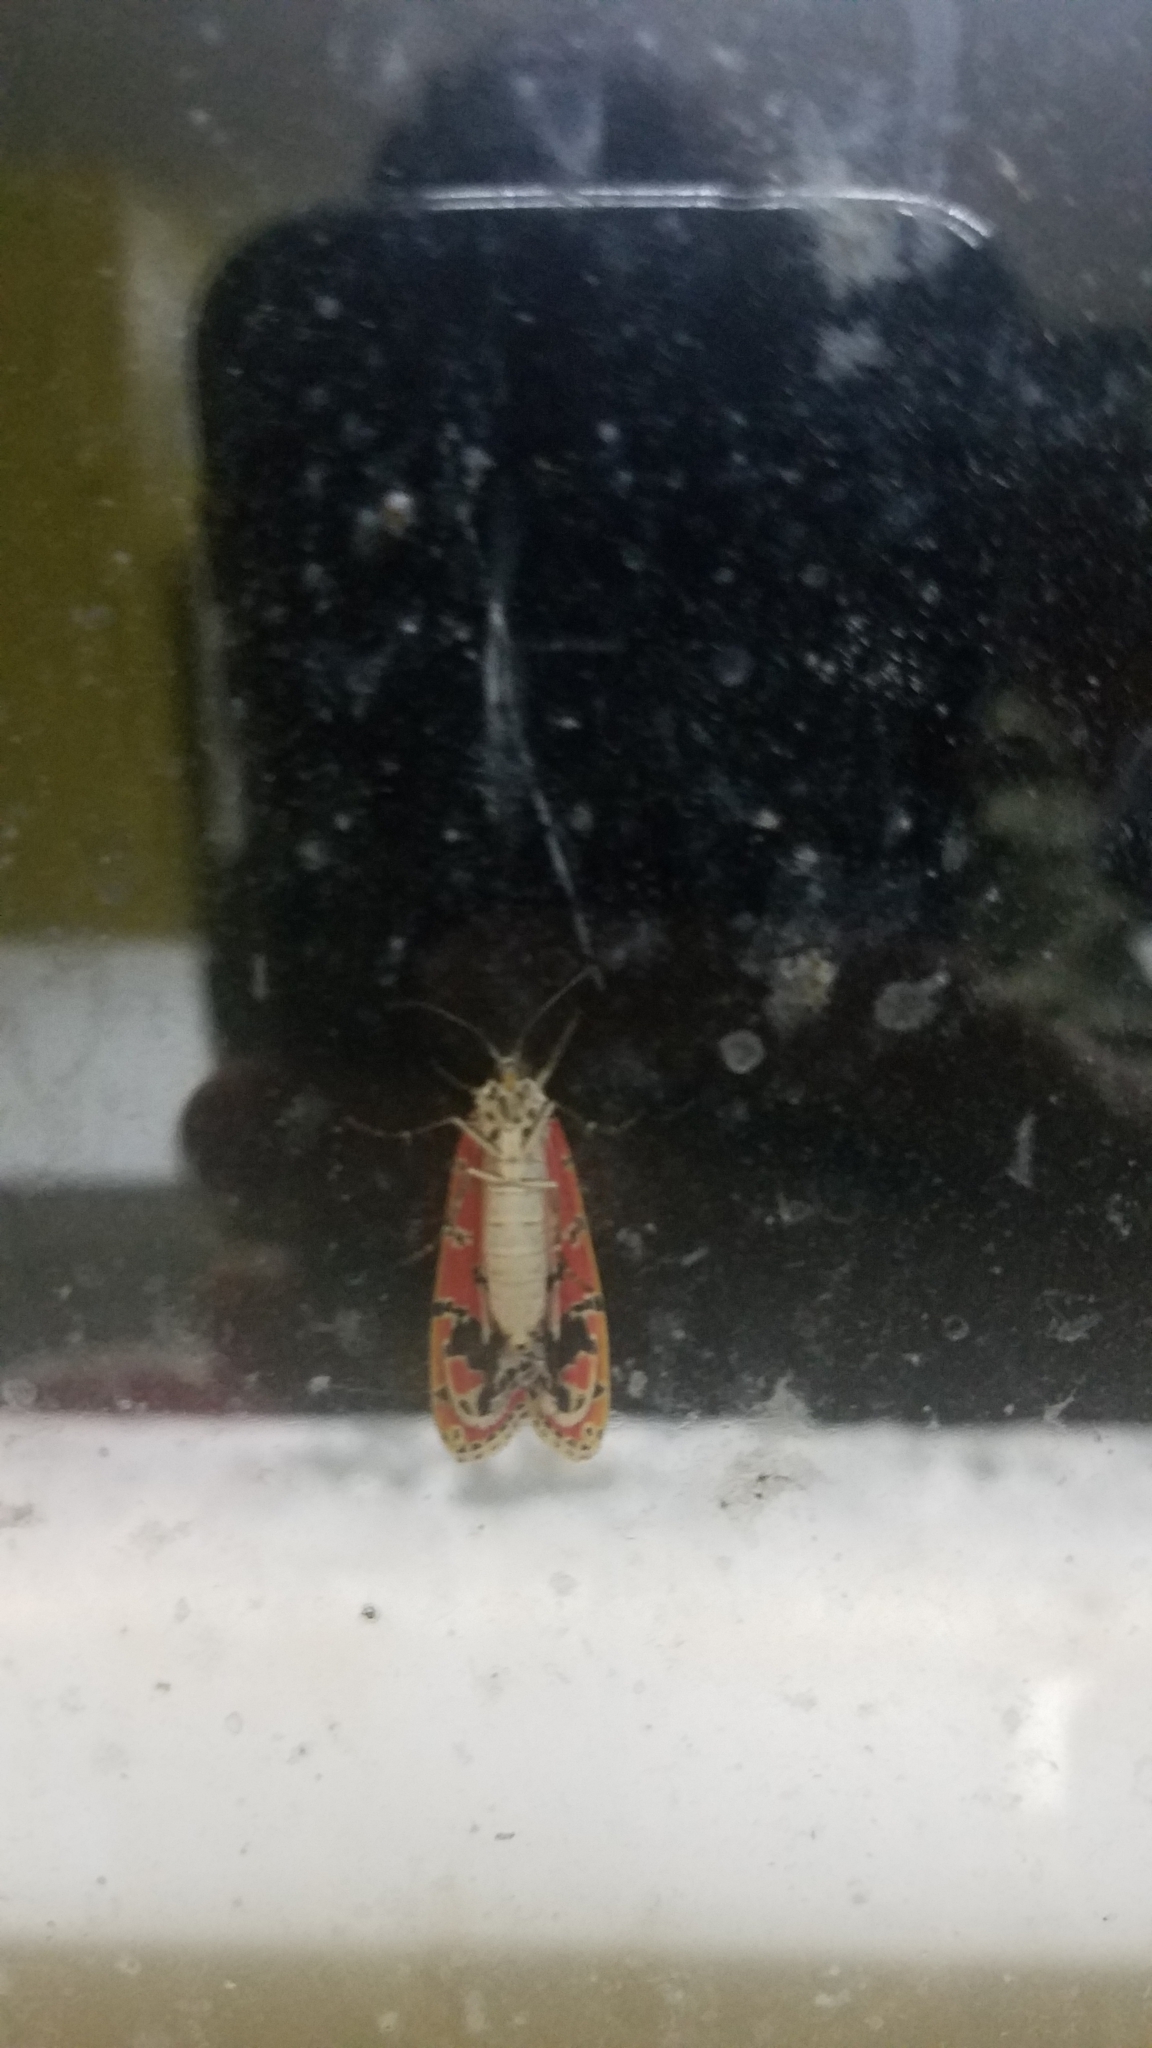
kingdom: Animalia
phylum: Arthropoda
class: Insecta
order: Lepidoptera
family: Erebidae
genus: Utetheisa
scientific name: Utetheisa ornatrix
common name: Beautiful utetheisa
